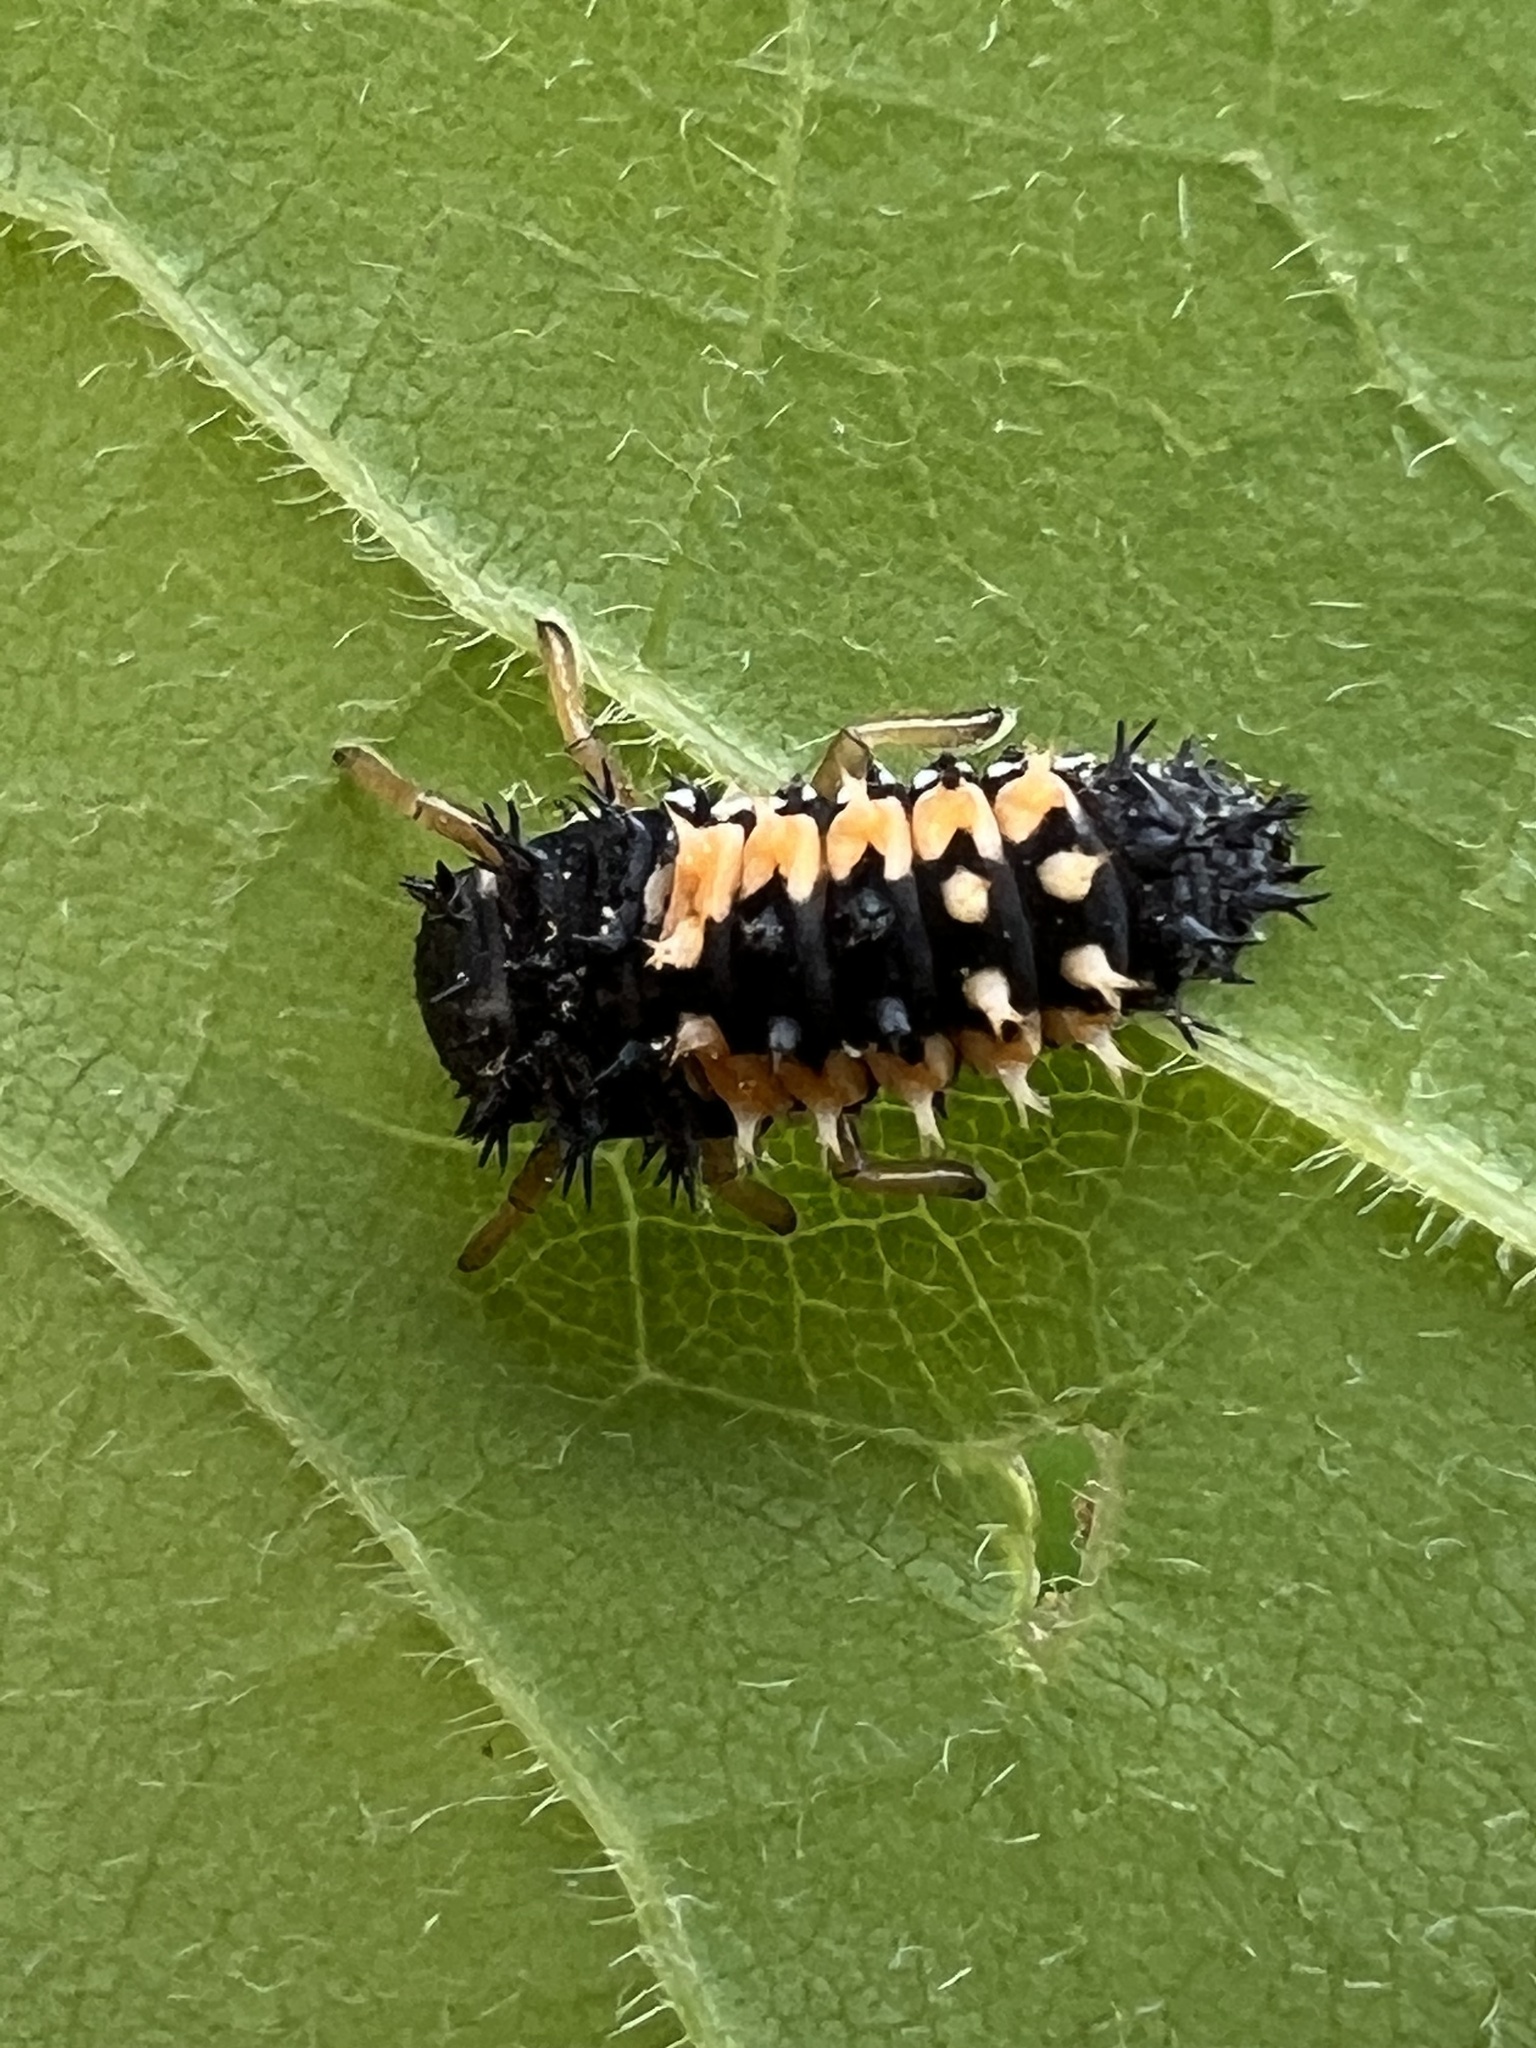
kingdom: Animalia
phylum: Arthropoda
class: Insecta
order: Coleoptera
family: Coccinellidae
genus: Harmonia
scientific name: Harmonia axyridis
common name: Harlequin ladybird
